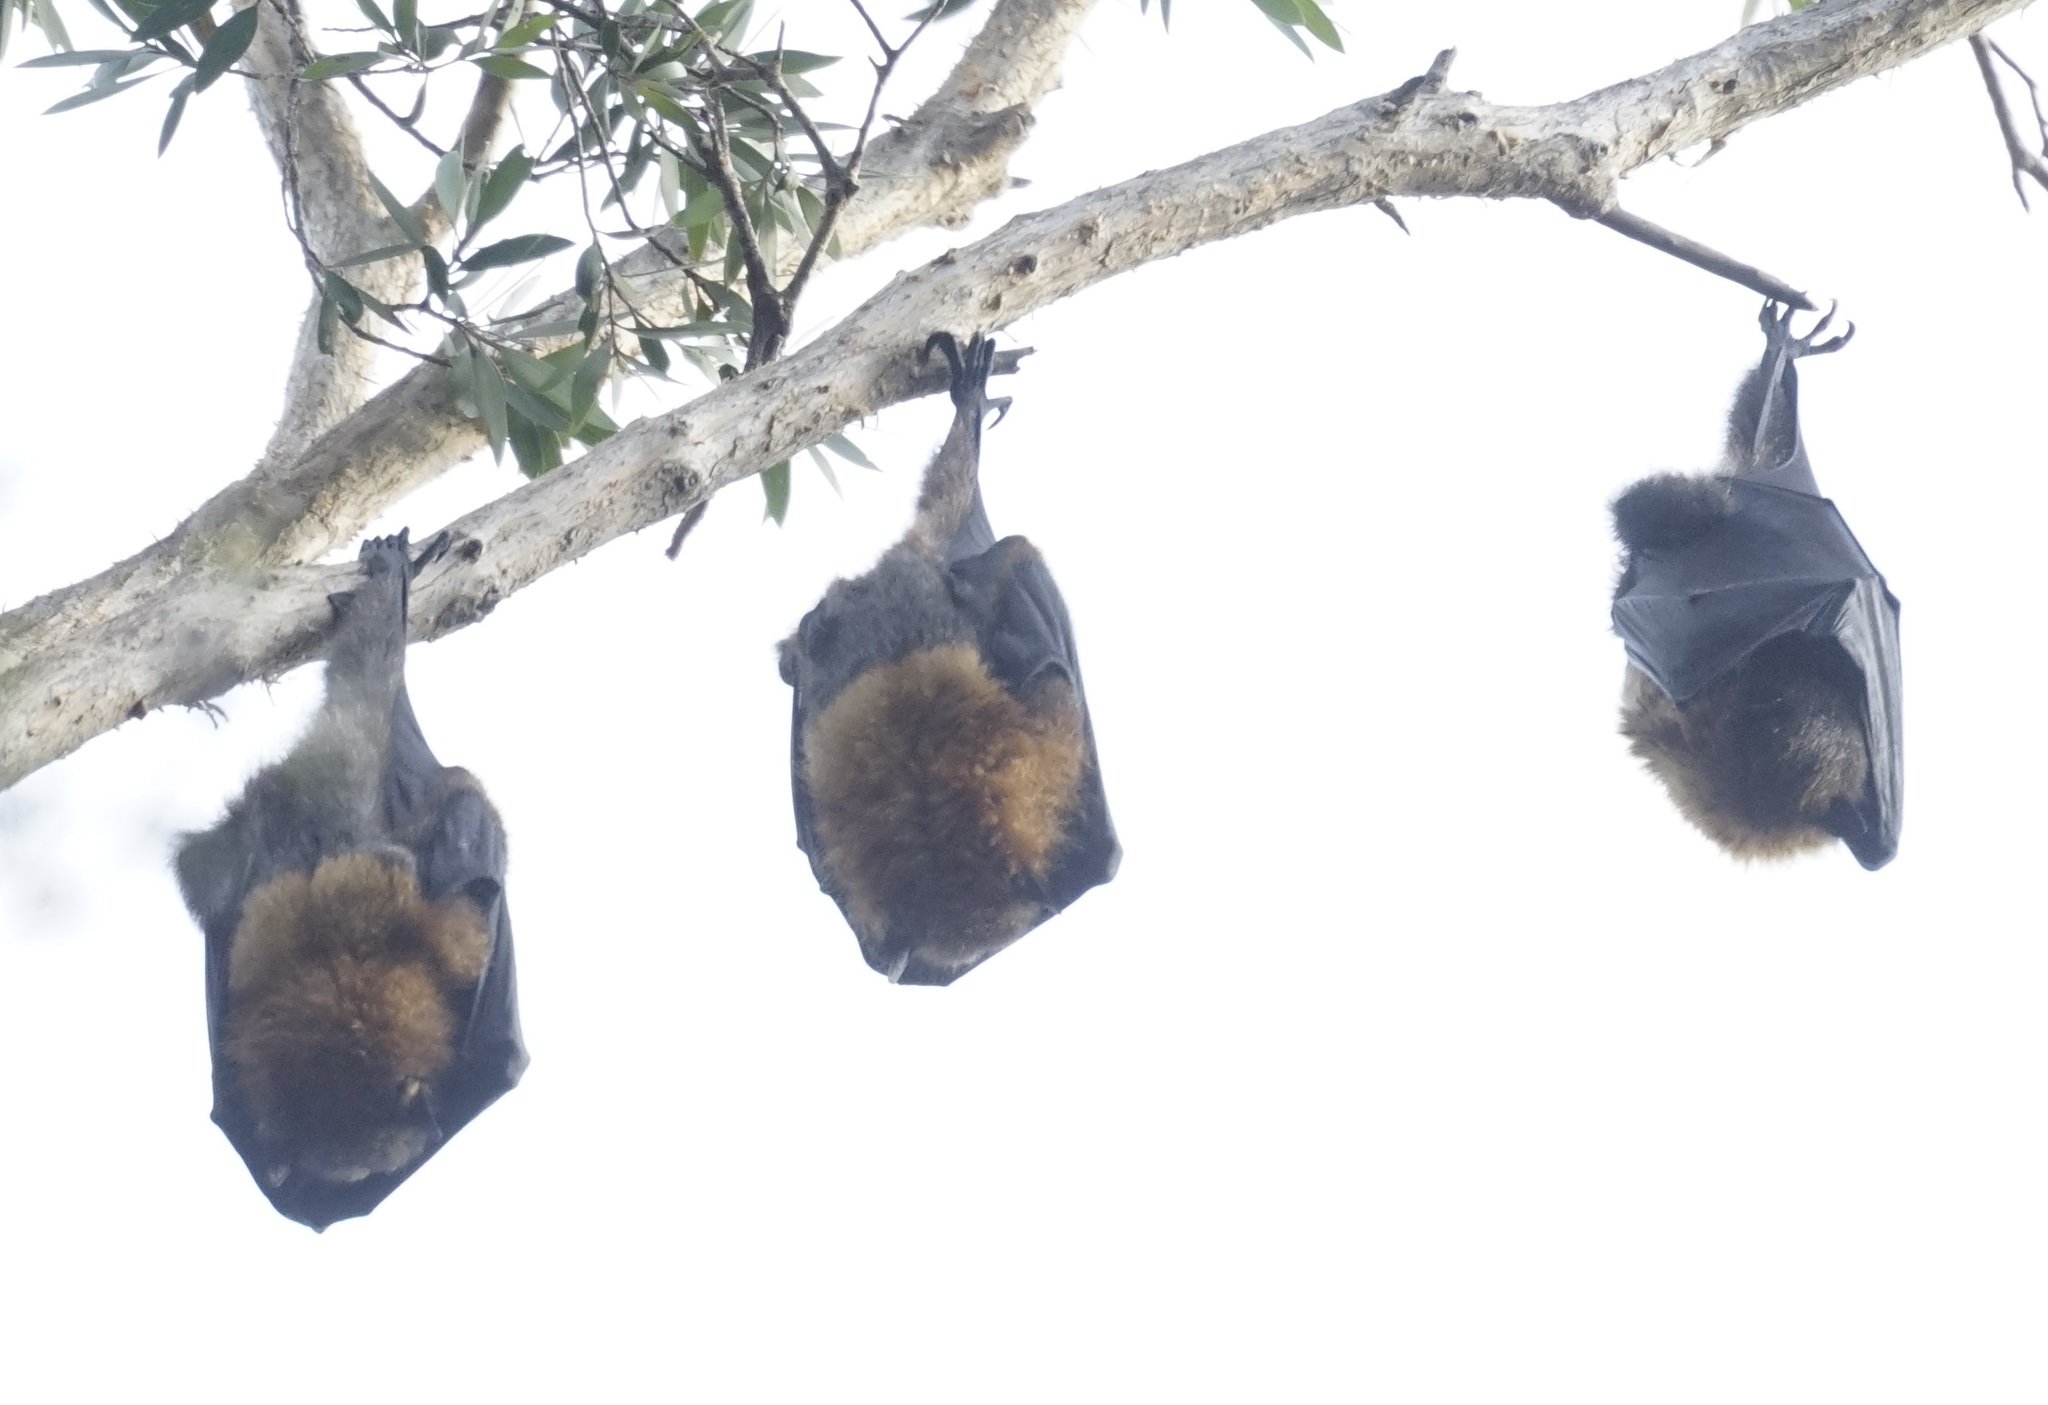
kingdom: Animalia
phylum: Chordata
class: Mammalia
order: Chiroptera
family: Pteropodidae
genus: Pteropus
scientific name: Pteropus poliocephalus
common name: Gray-headed flying fox
